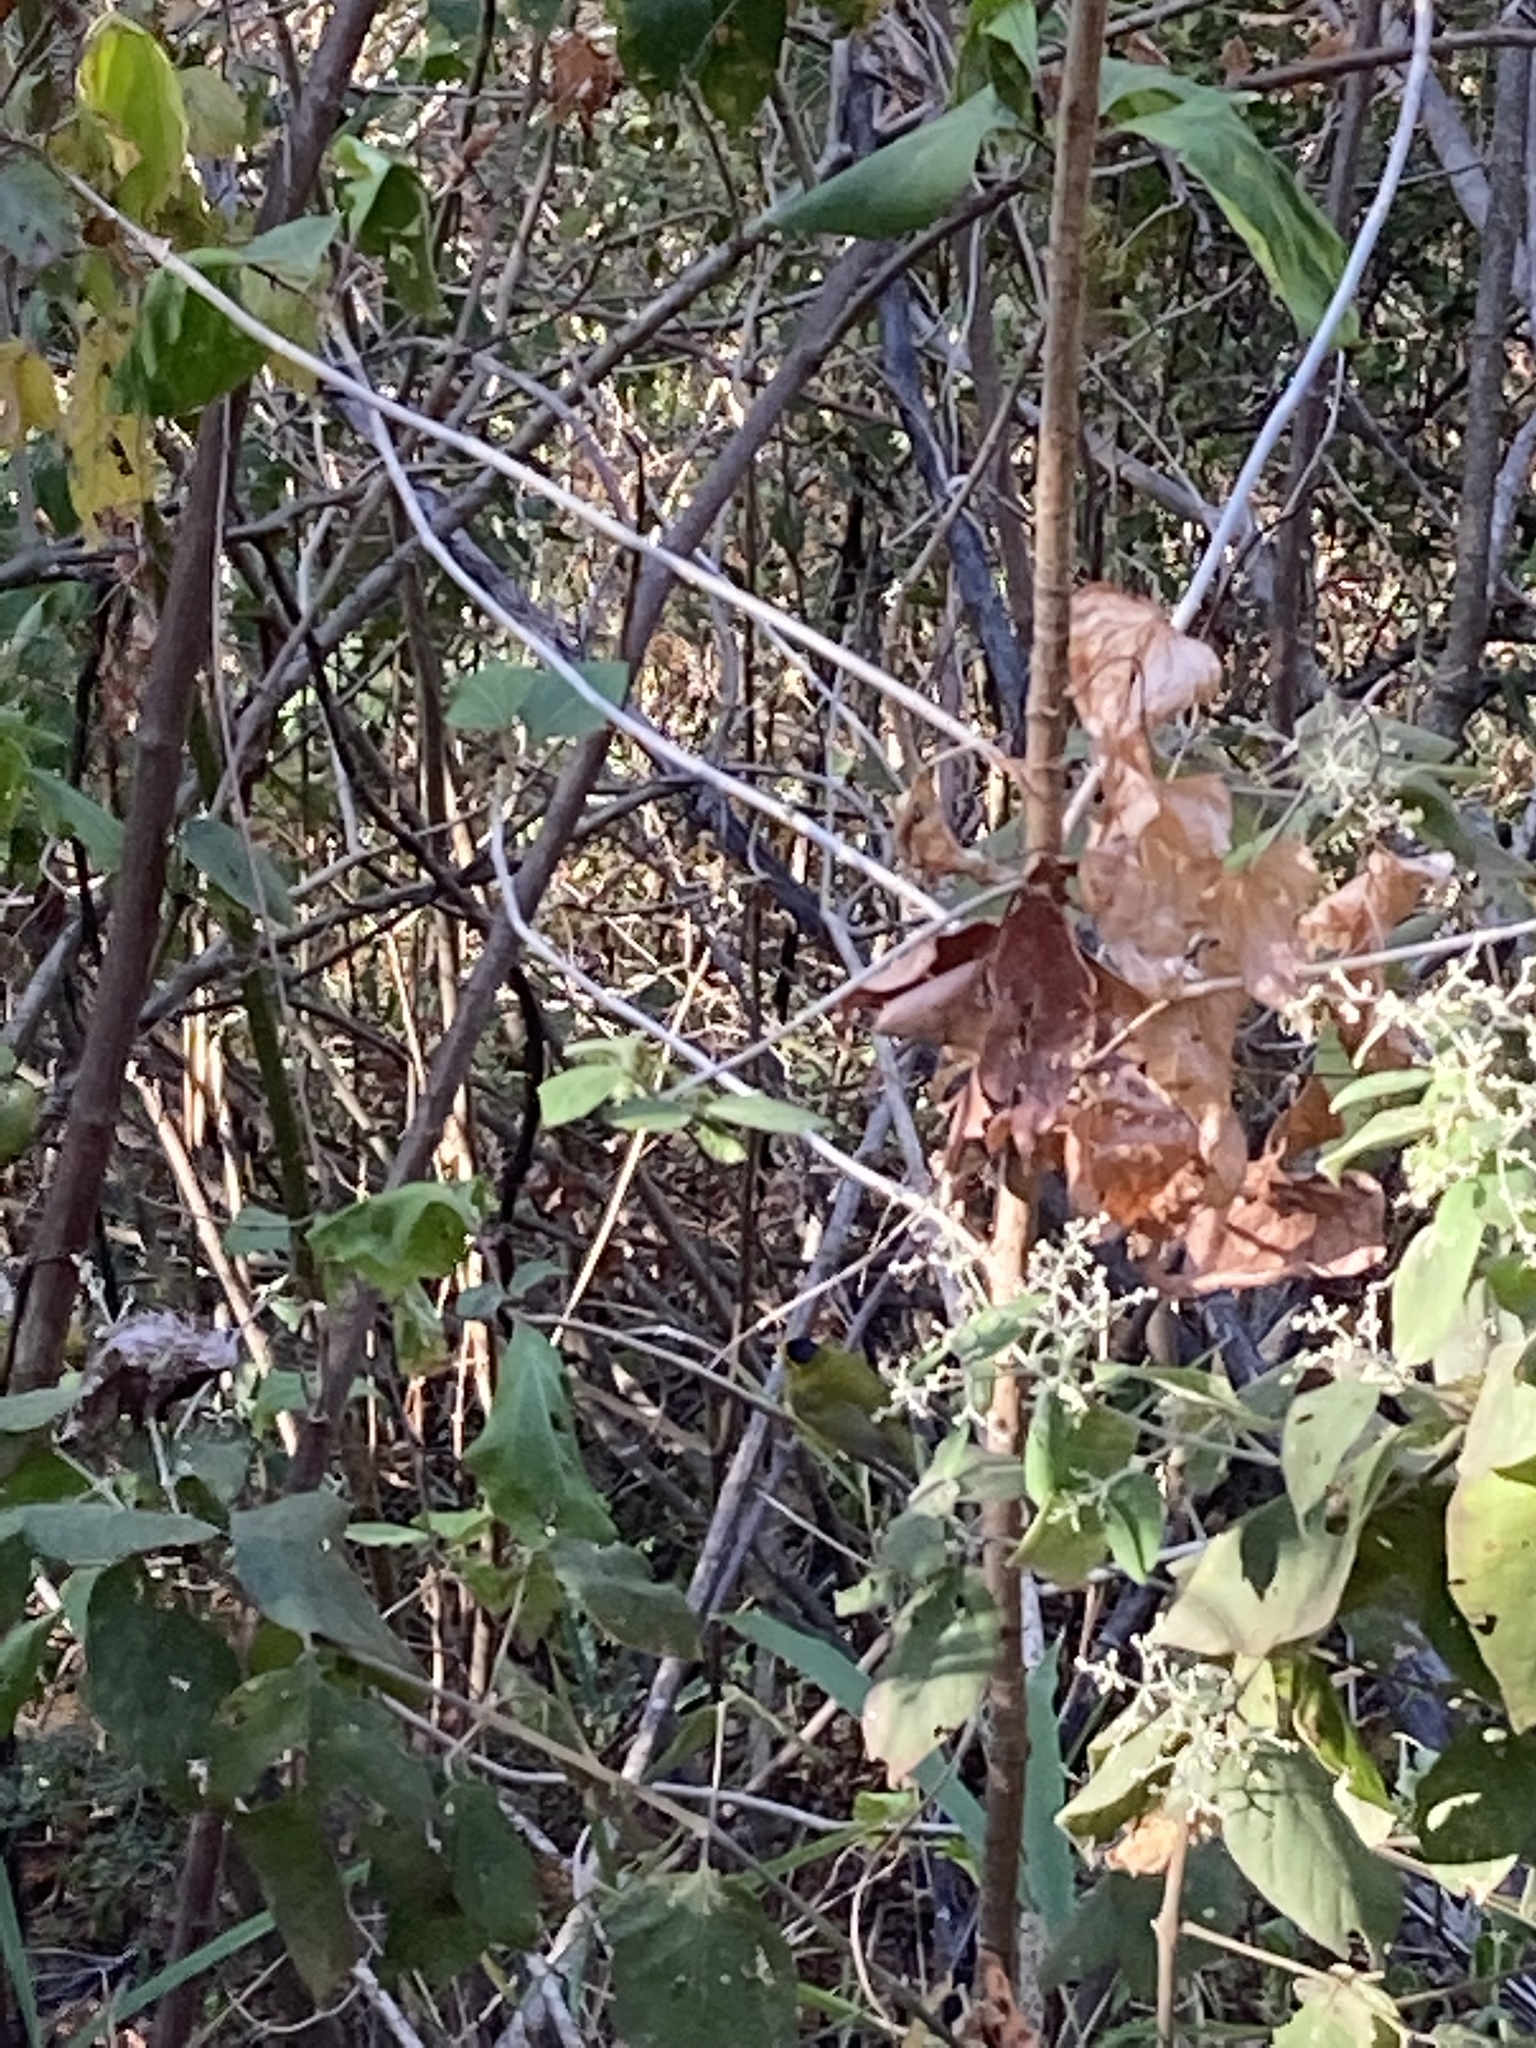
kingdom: Animalia
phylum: Chordata
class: Aves
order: Passeriformes
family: Parulidae
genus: Cardellina
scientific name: Cardellina pusilla
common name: Wilson's warbler
